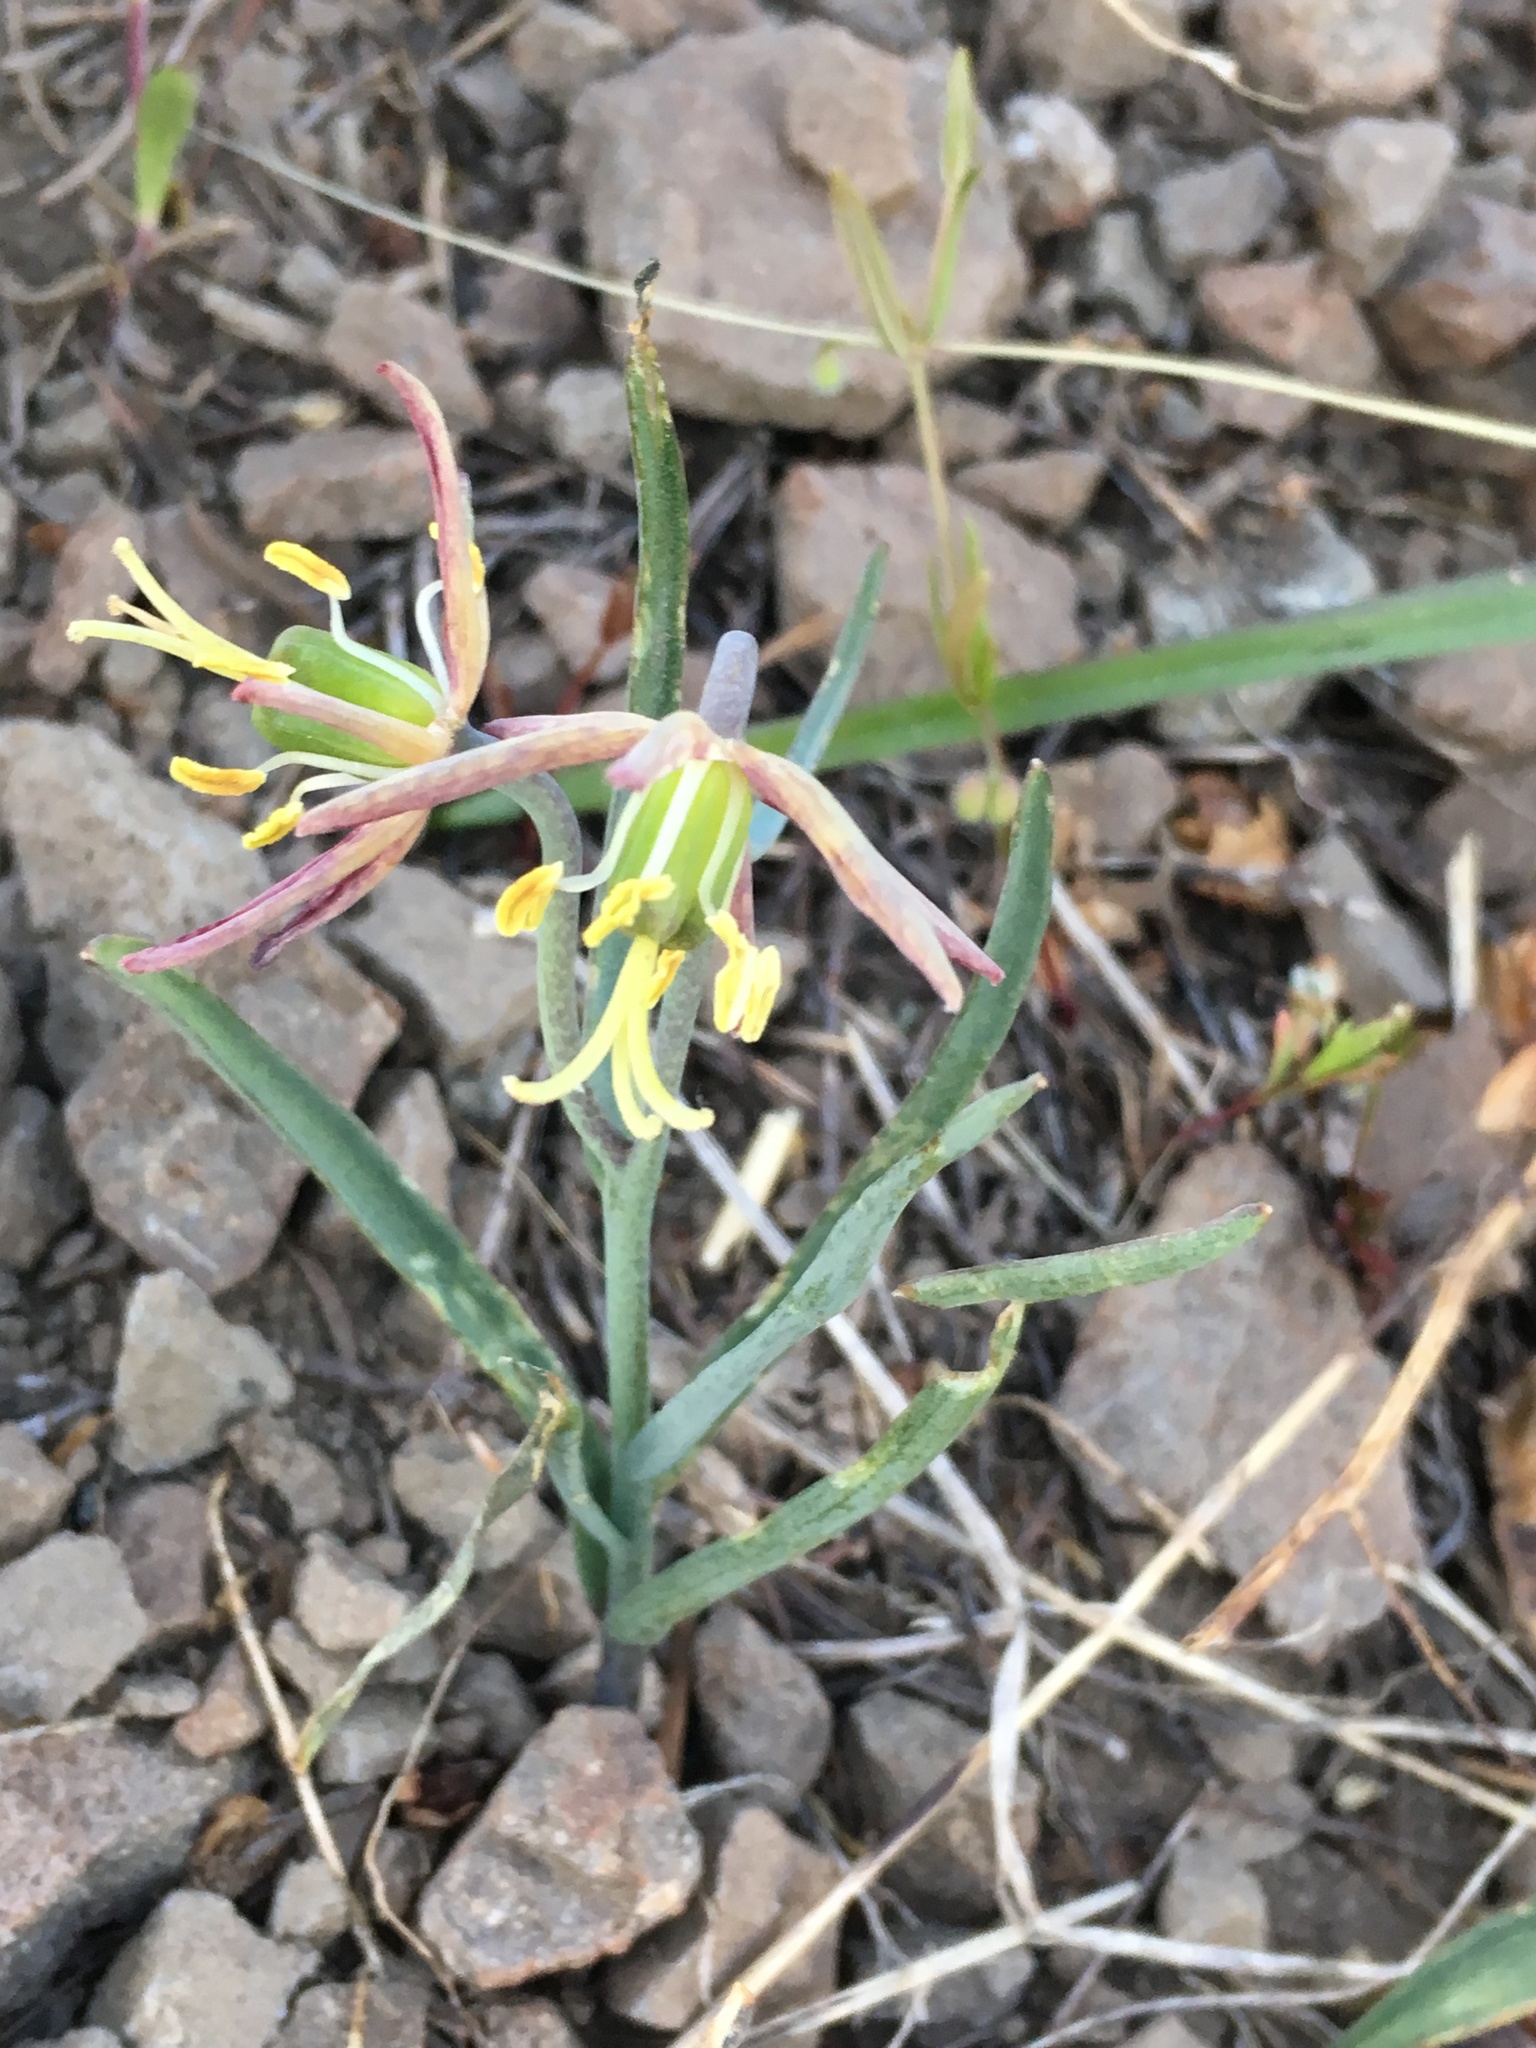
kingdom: Plantae
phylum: Tracheophyta
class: Liliopsida
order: Liliales
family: Liliaceae
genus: Fritillaria
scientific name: Fritillaria atropurpurea
